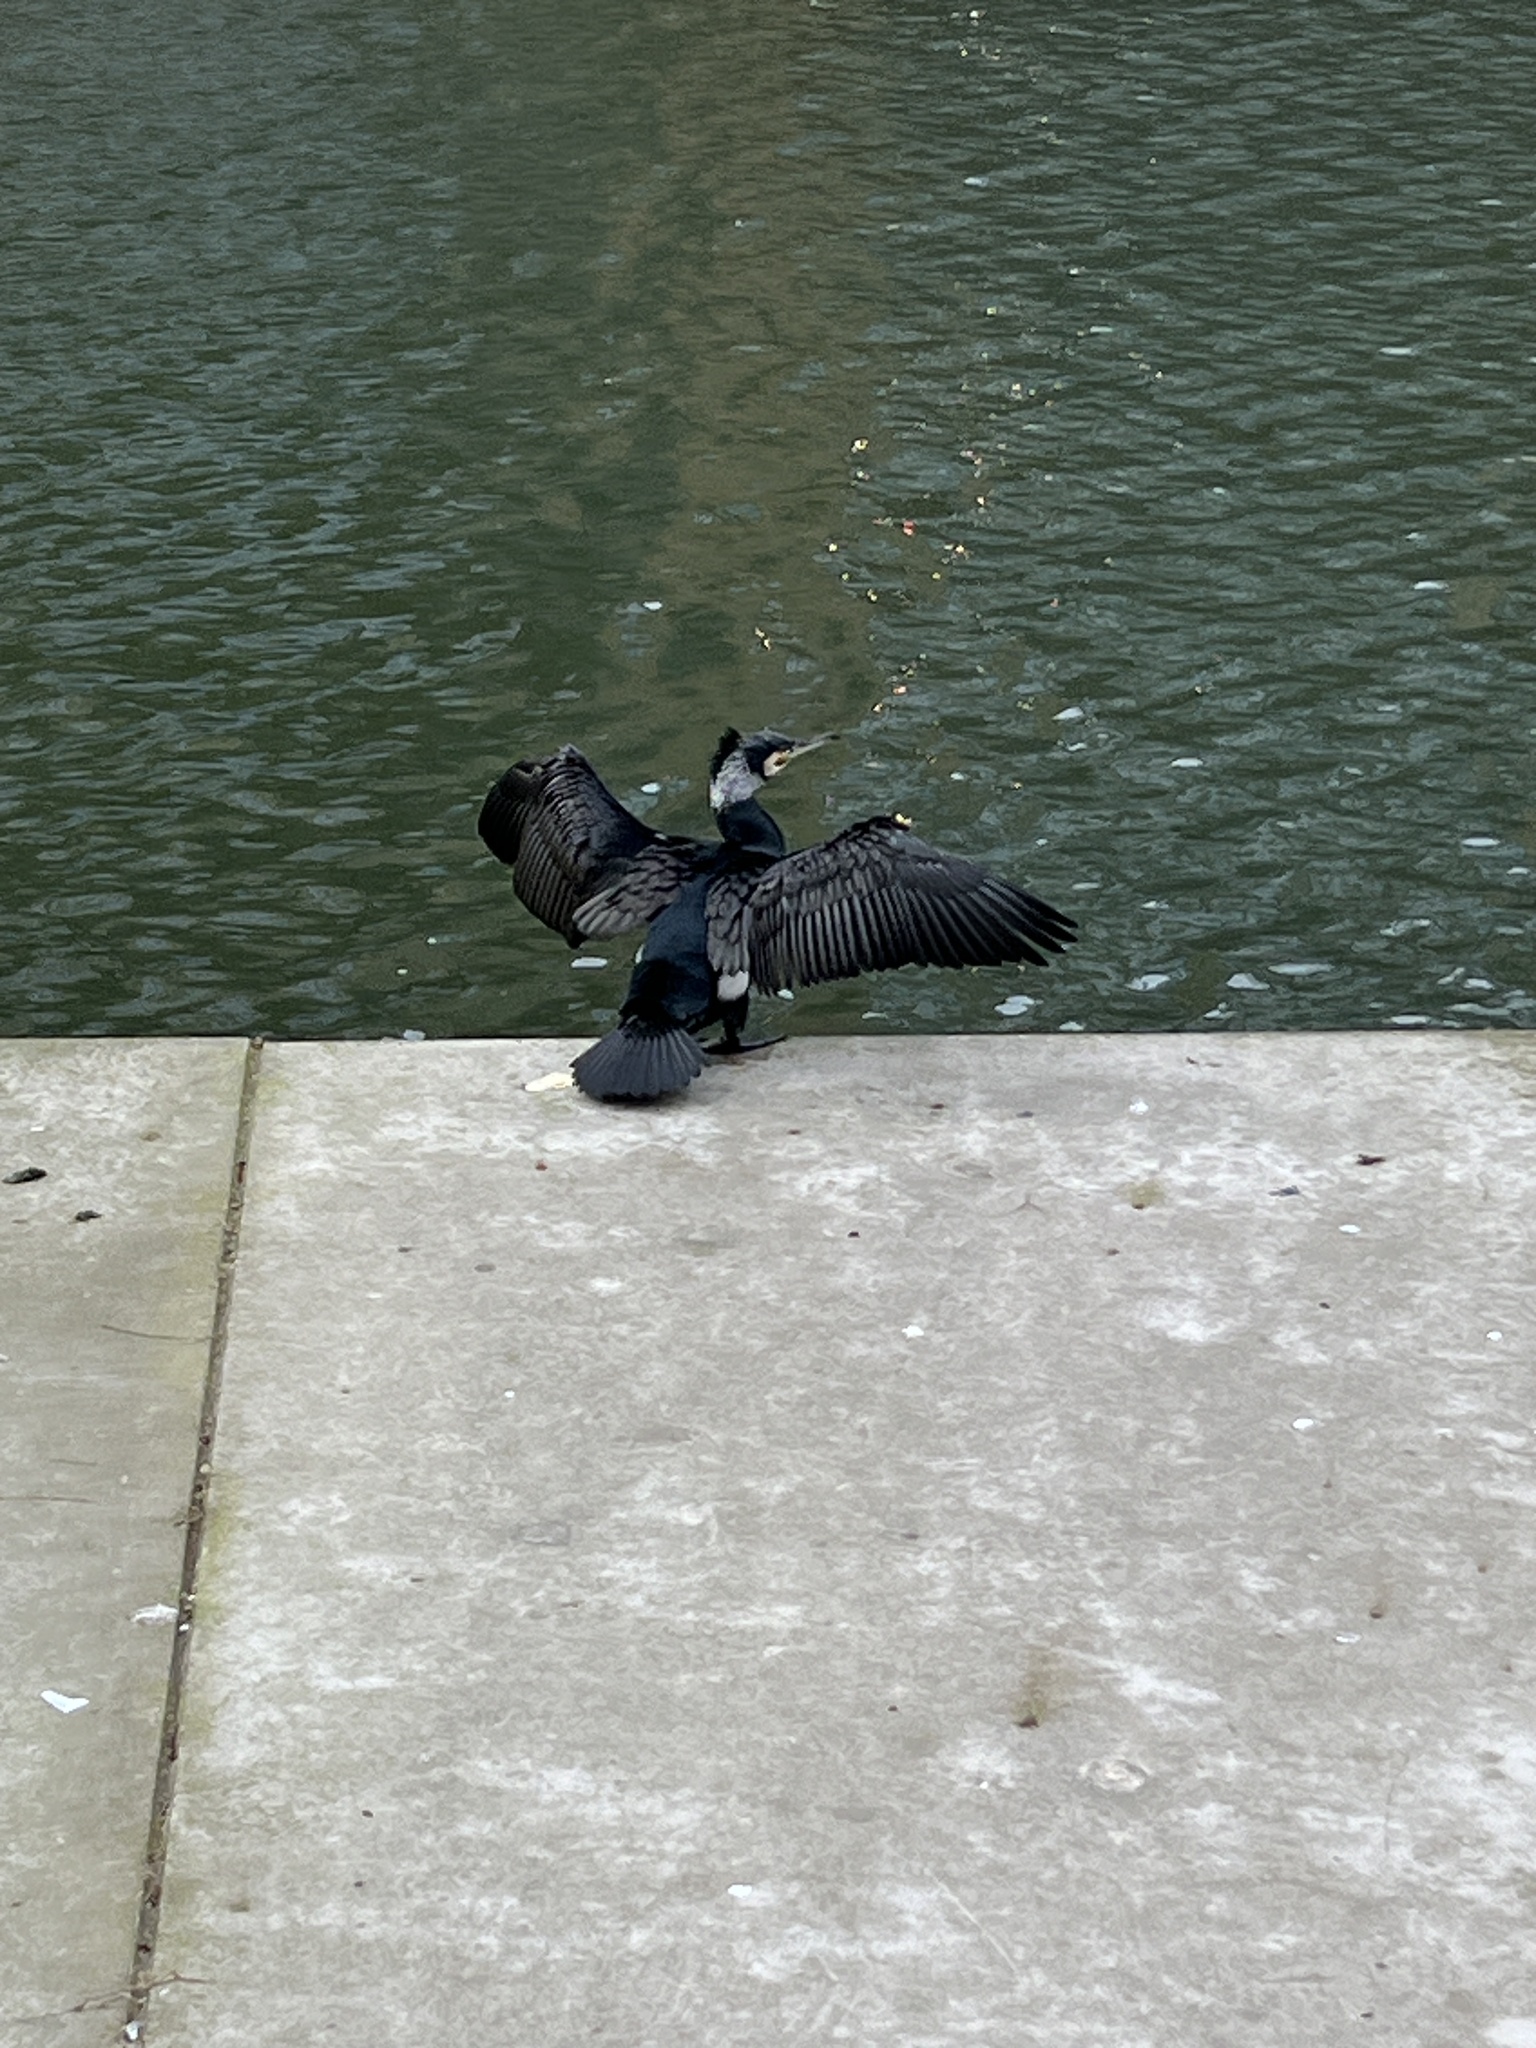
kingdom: Animalia
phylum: Chordata
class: Aves
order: Suliformes
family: Phalacrocoracidae
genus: Phalacrocorax
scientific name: Phalacrocorax carbo
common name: Great cormorant
